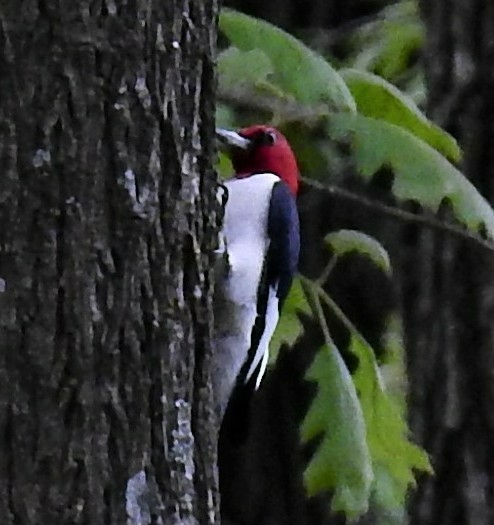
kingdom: Animalia
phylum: Chordata
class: Aves
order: Piciformes
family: Picidae
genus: Melanerpes
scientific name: Melanerpes erythrocephalus
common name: Red-headed woodpecker
